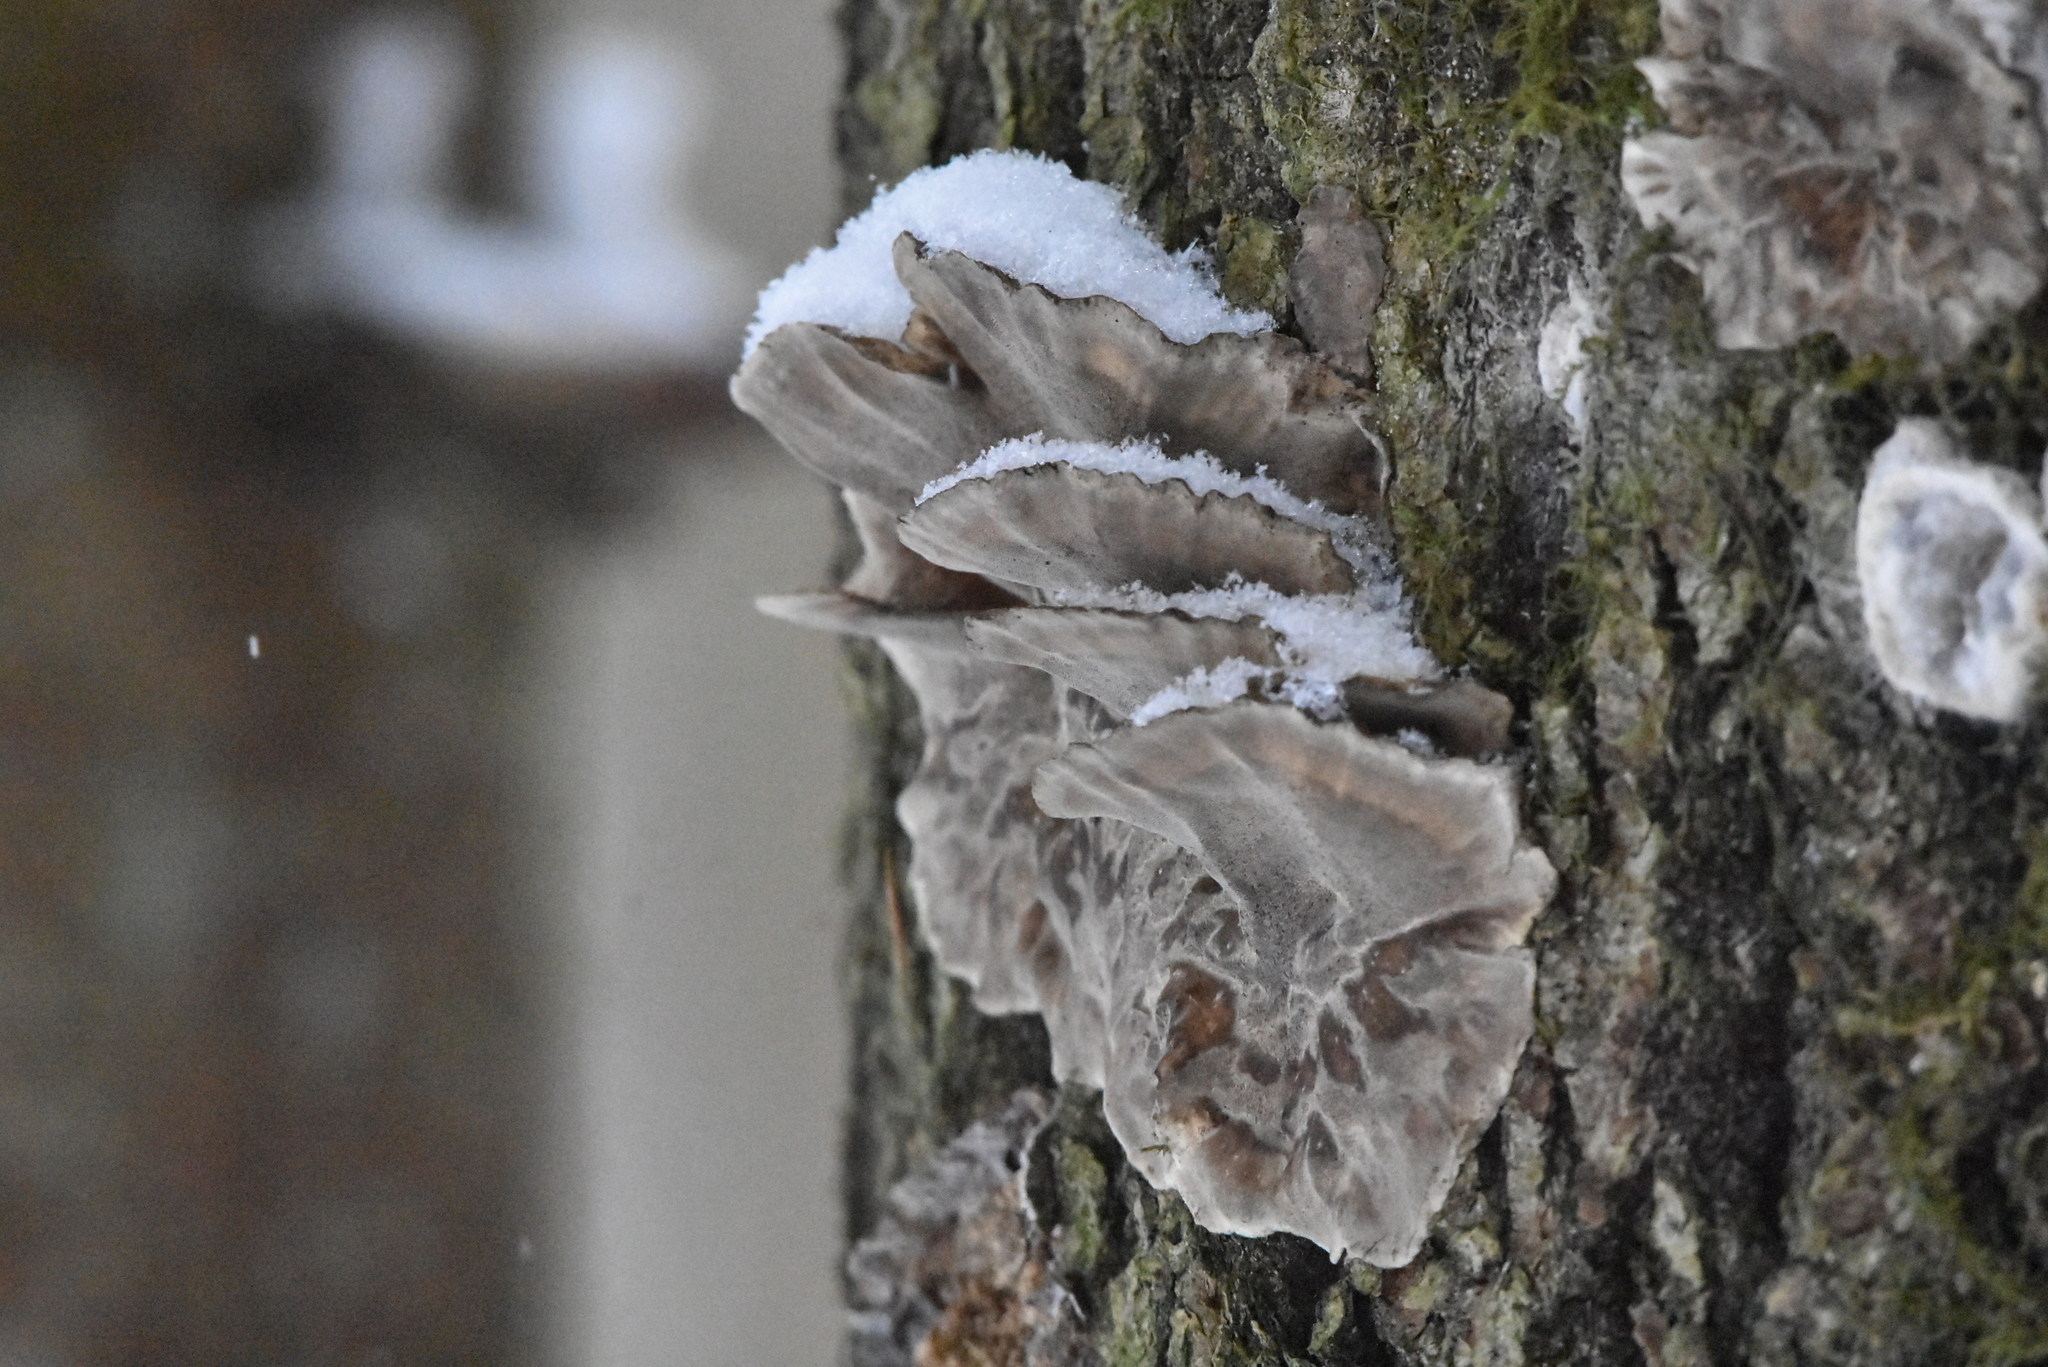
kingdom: Fungi
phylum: Basidiomycota
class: Agaricomycetes
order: Polyporales
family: Phanerochaetaceae
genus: Bjerkandera
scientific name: Bjerkandera adusta
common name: Smoky bracket
